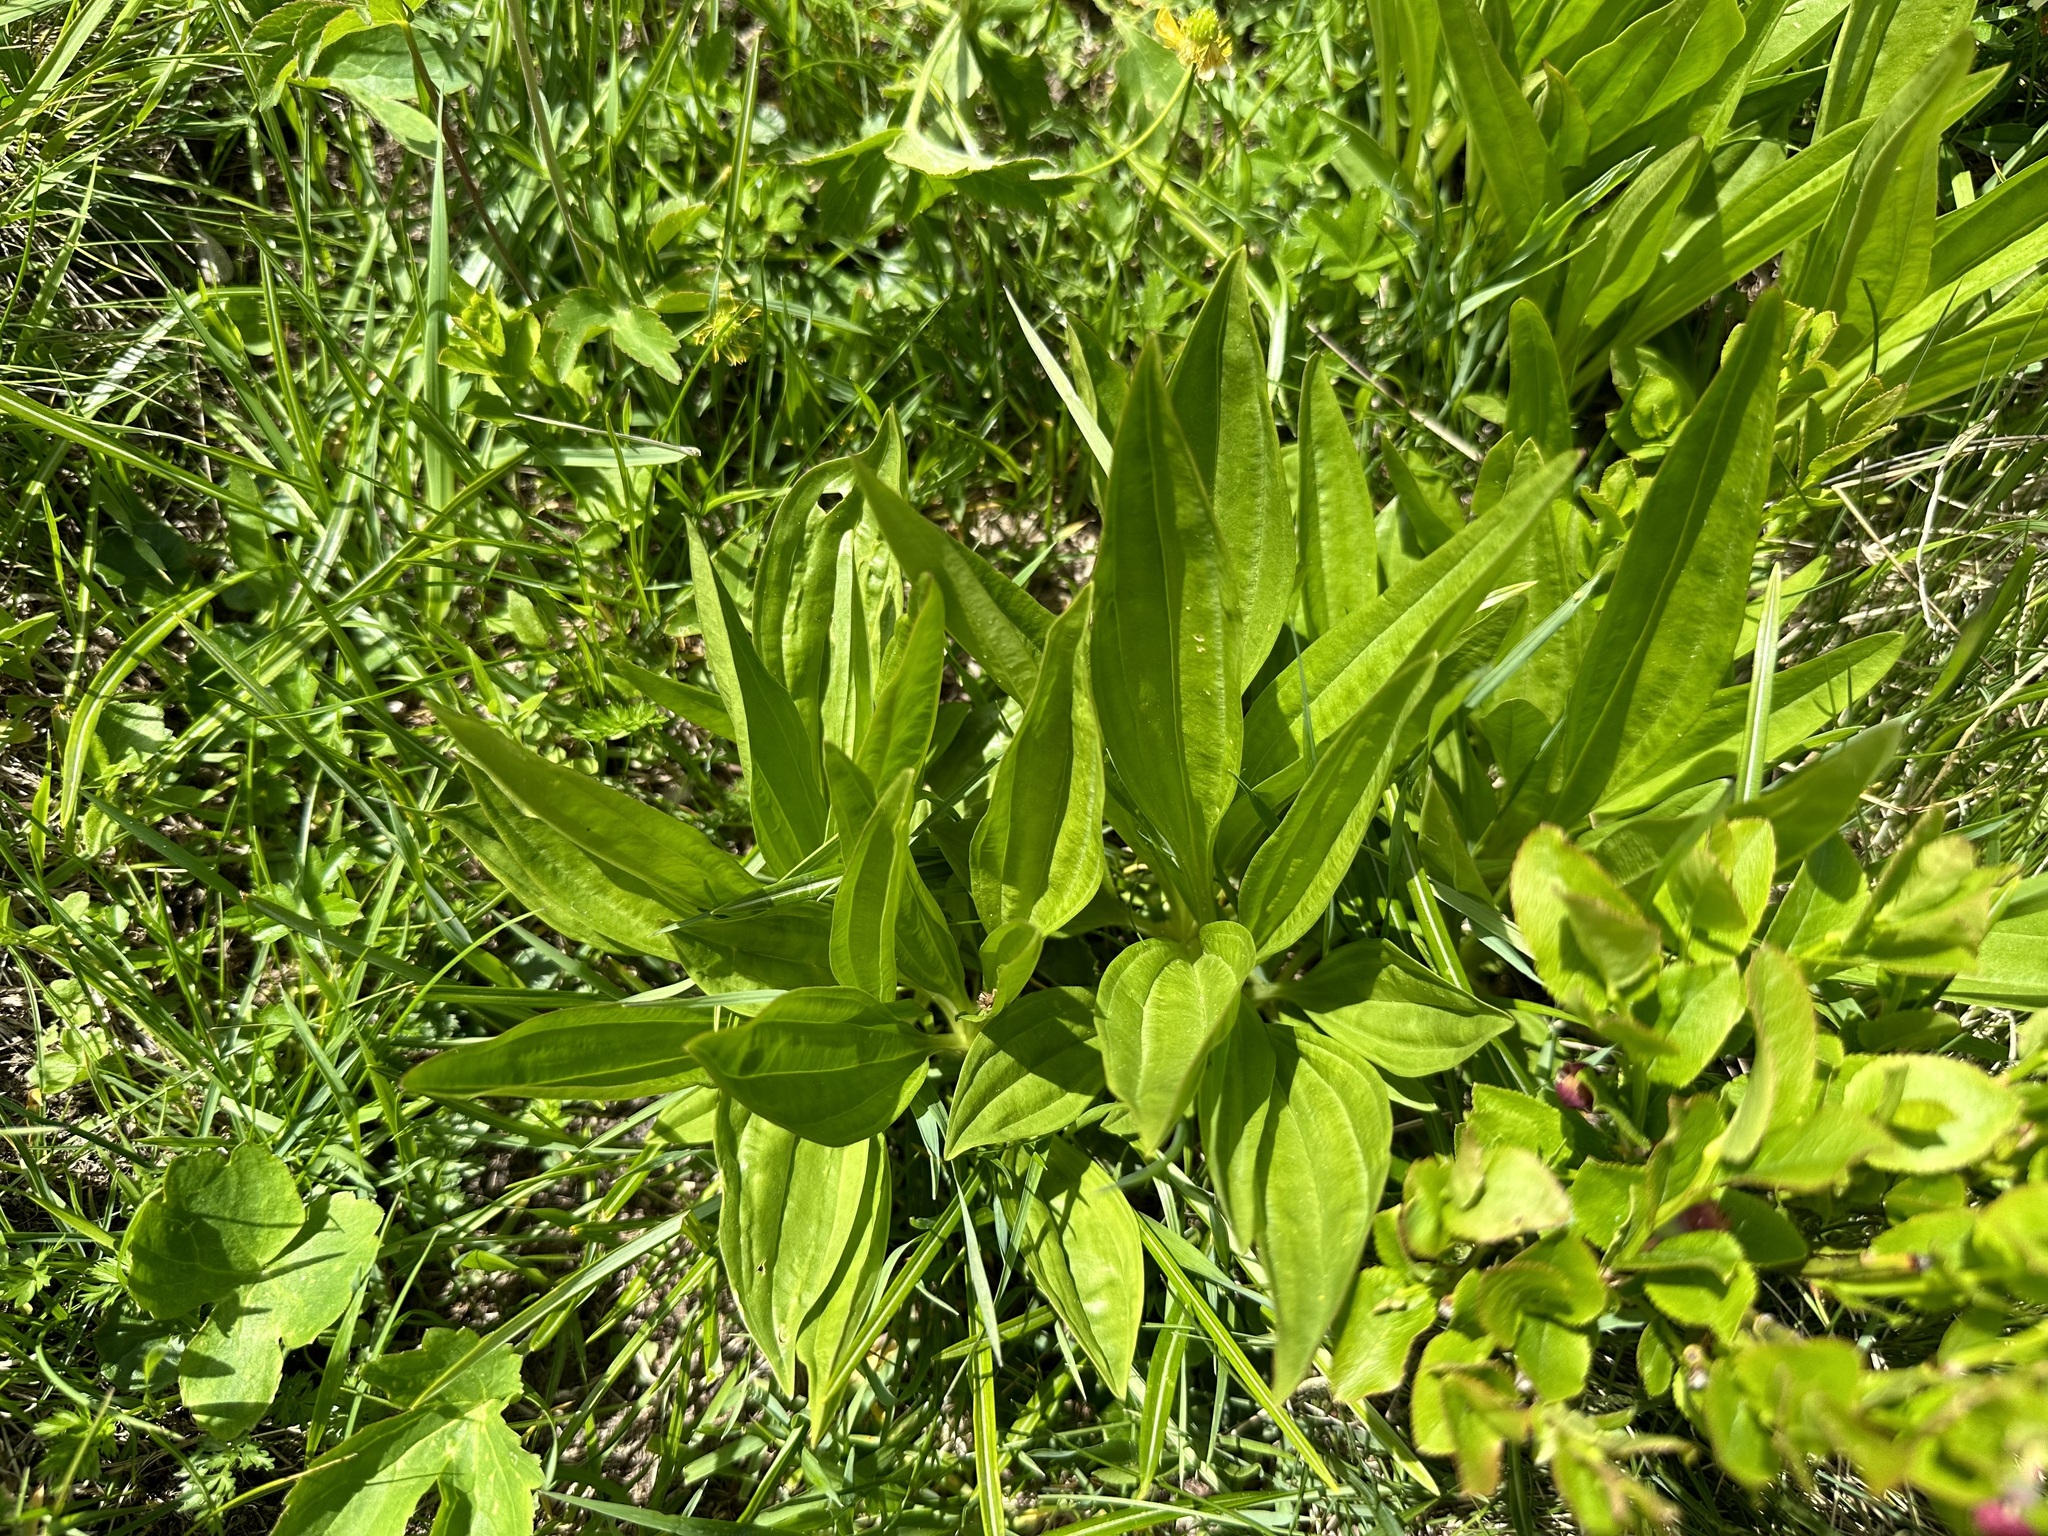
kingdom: Plantae
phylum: Tracheophyta
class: Magnoliopsida
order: Gentianales
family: Gentianaceae
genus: Gentiana
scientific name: Gentiana purpurea
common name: Purple gentian
